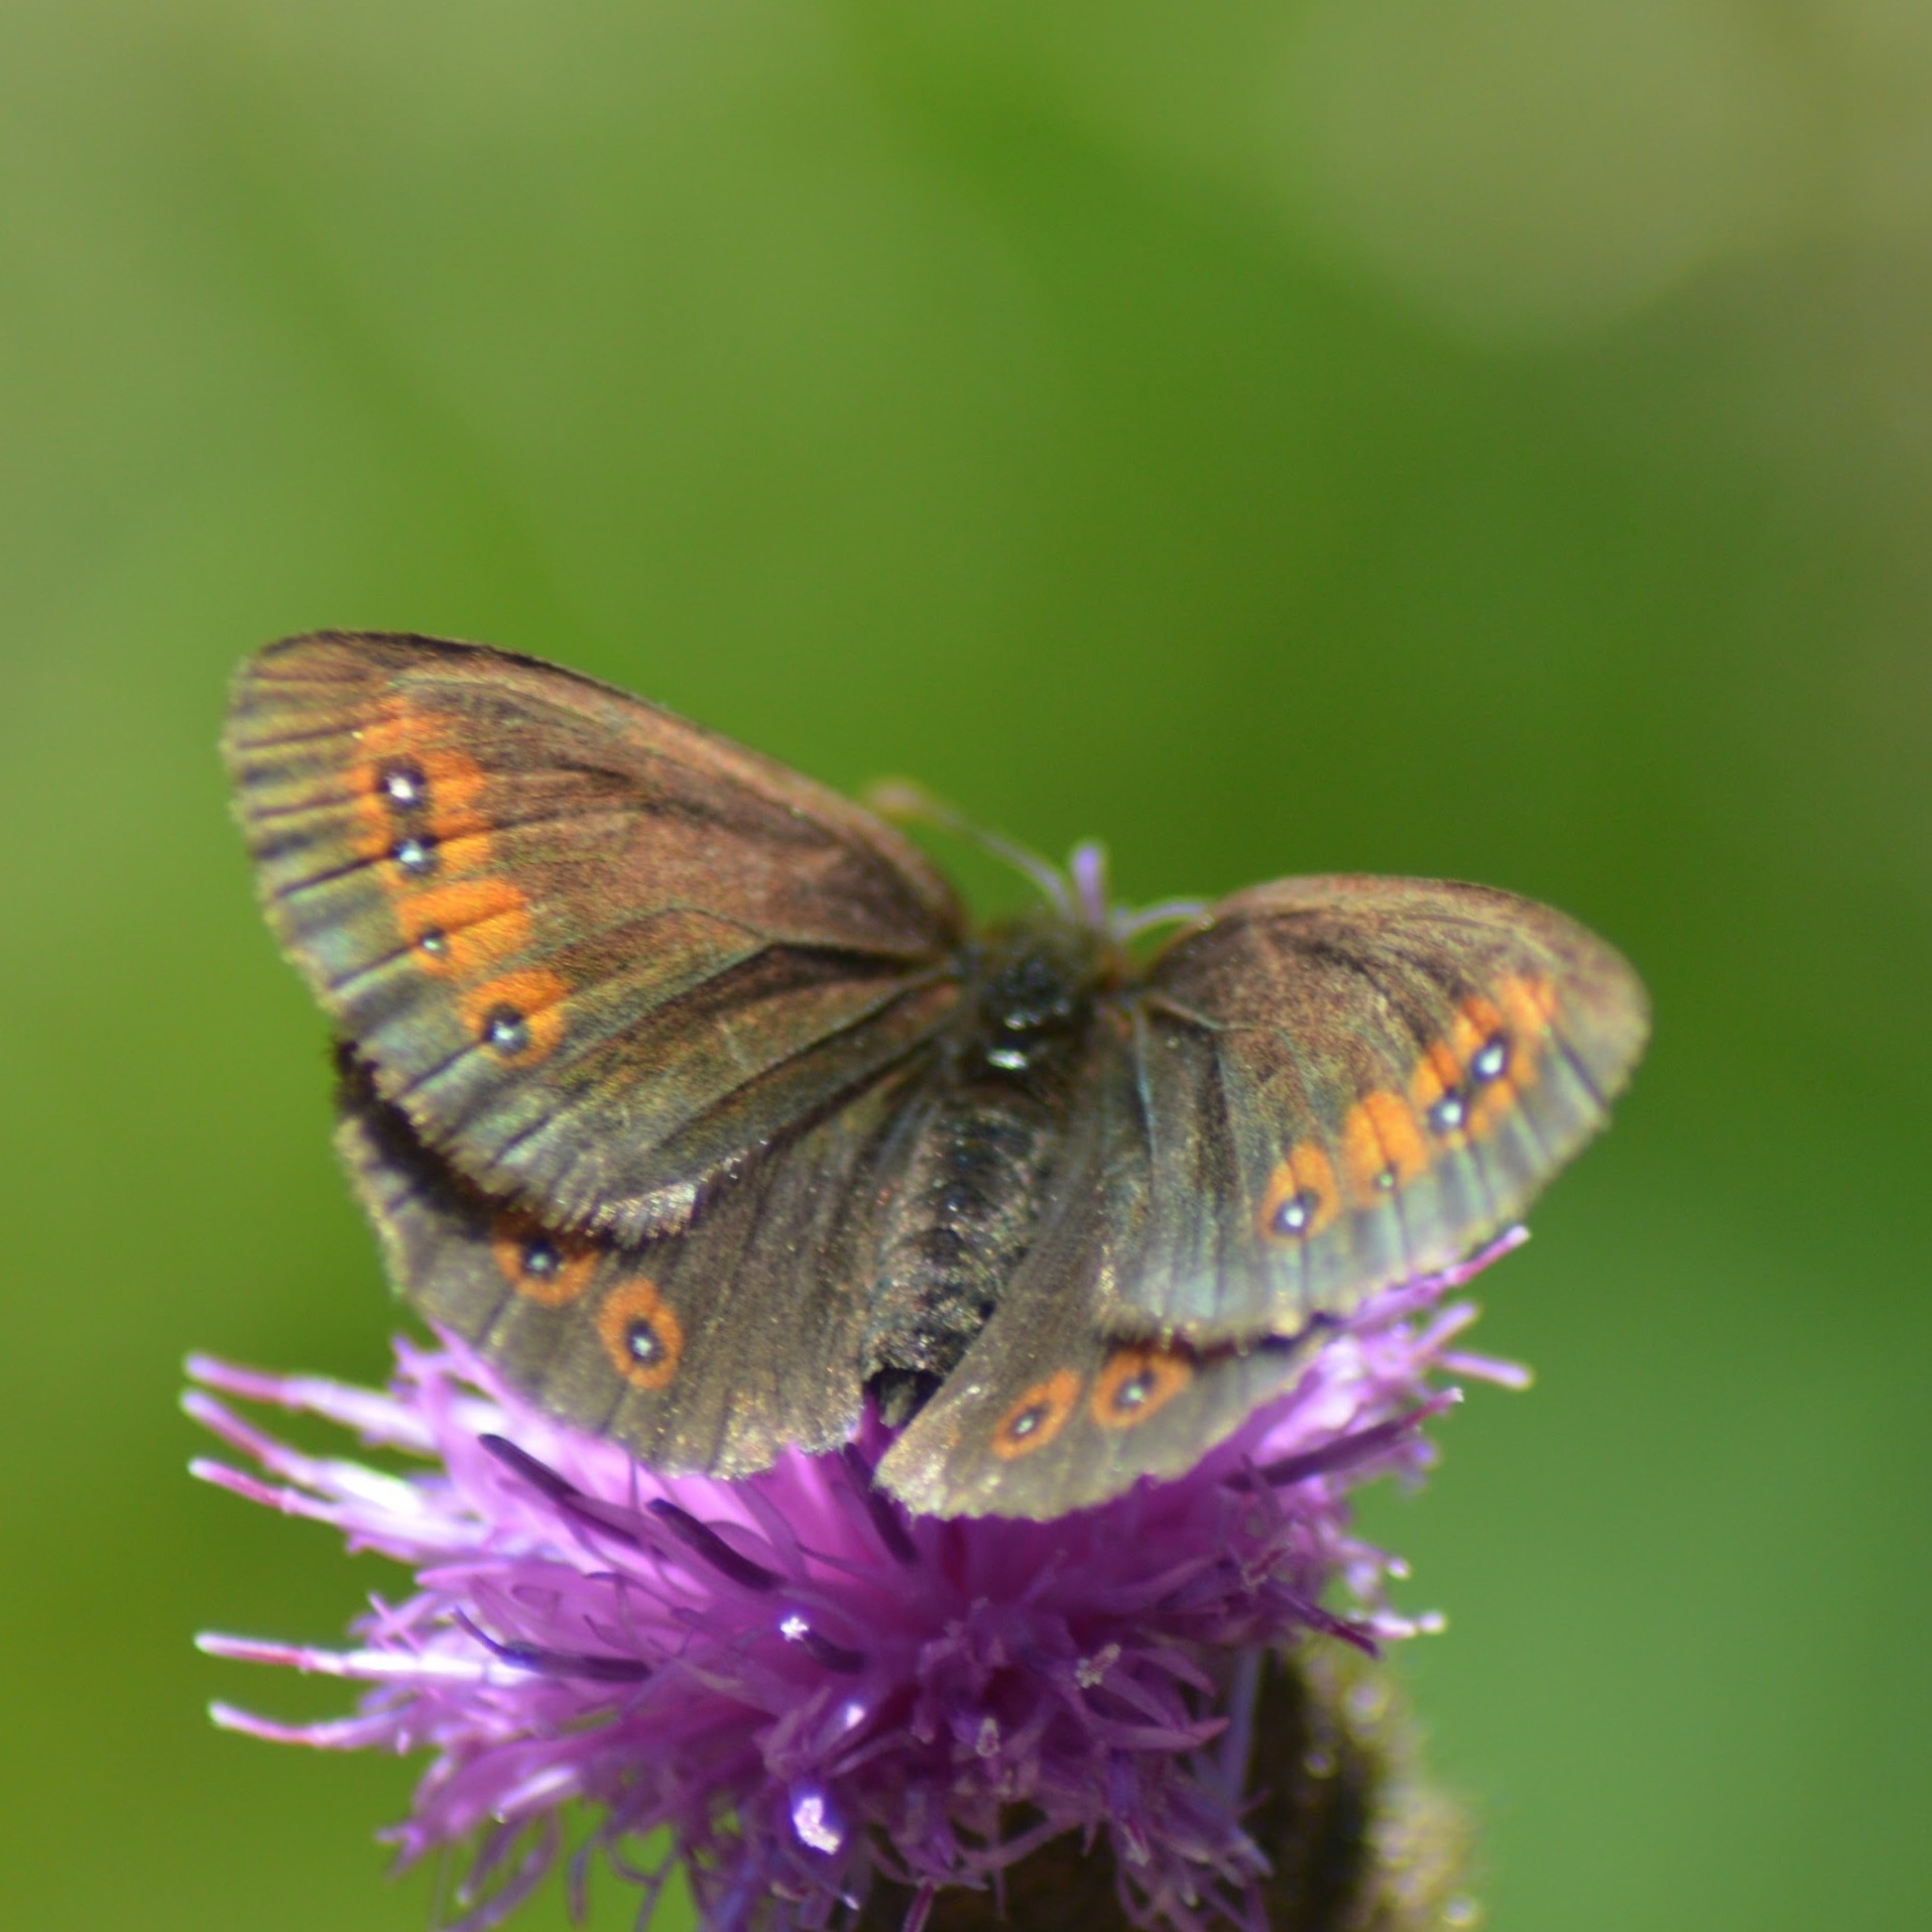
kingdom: Animalia
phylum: Arthropoda
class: Insecta
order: Lepidoptera
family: Nymphalidae
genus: Erebia
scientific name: Erebia meolans
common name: Piedmont ringlet
